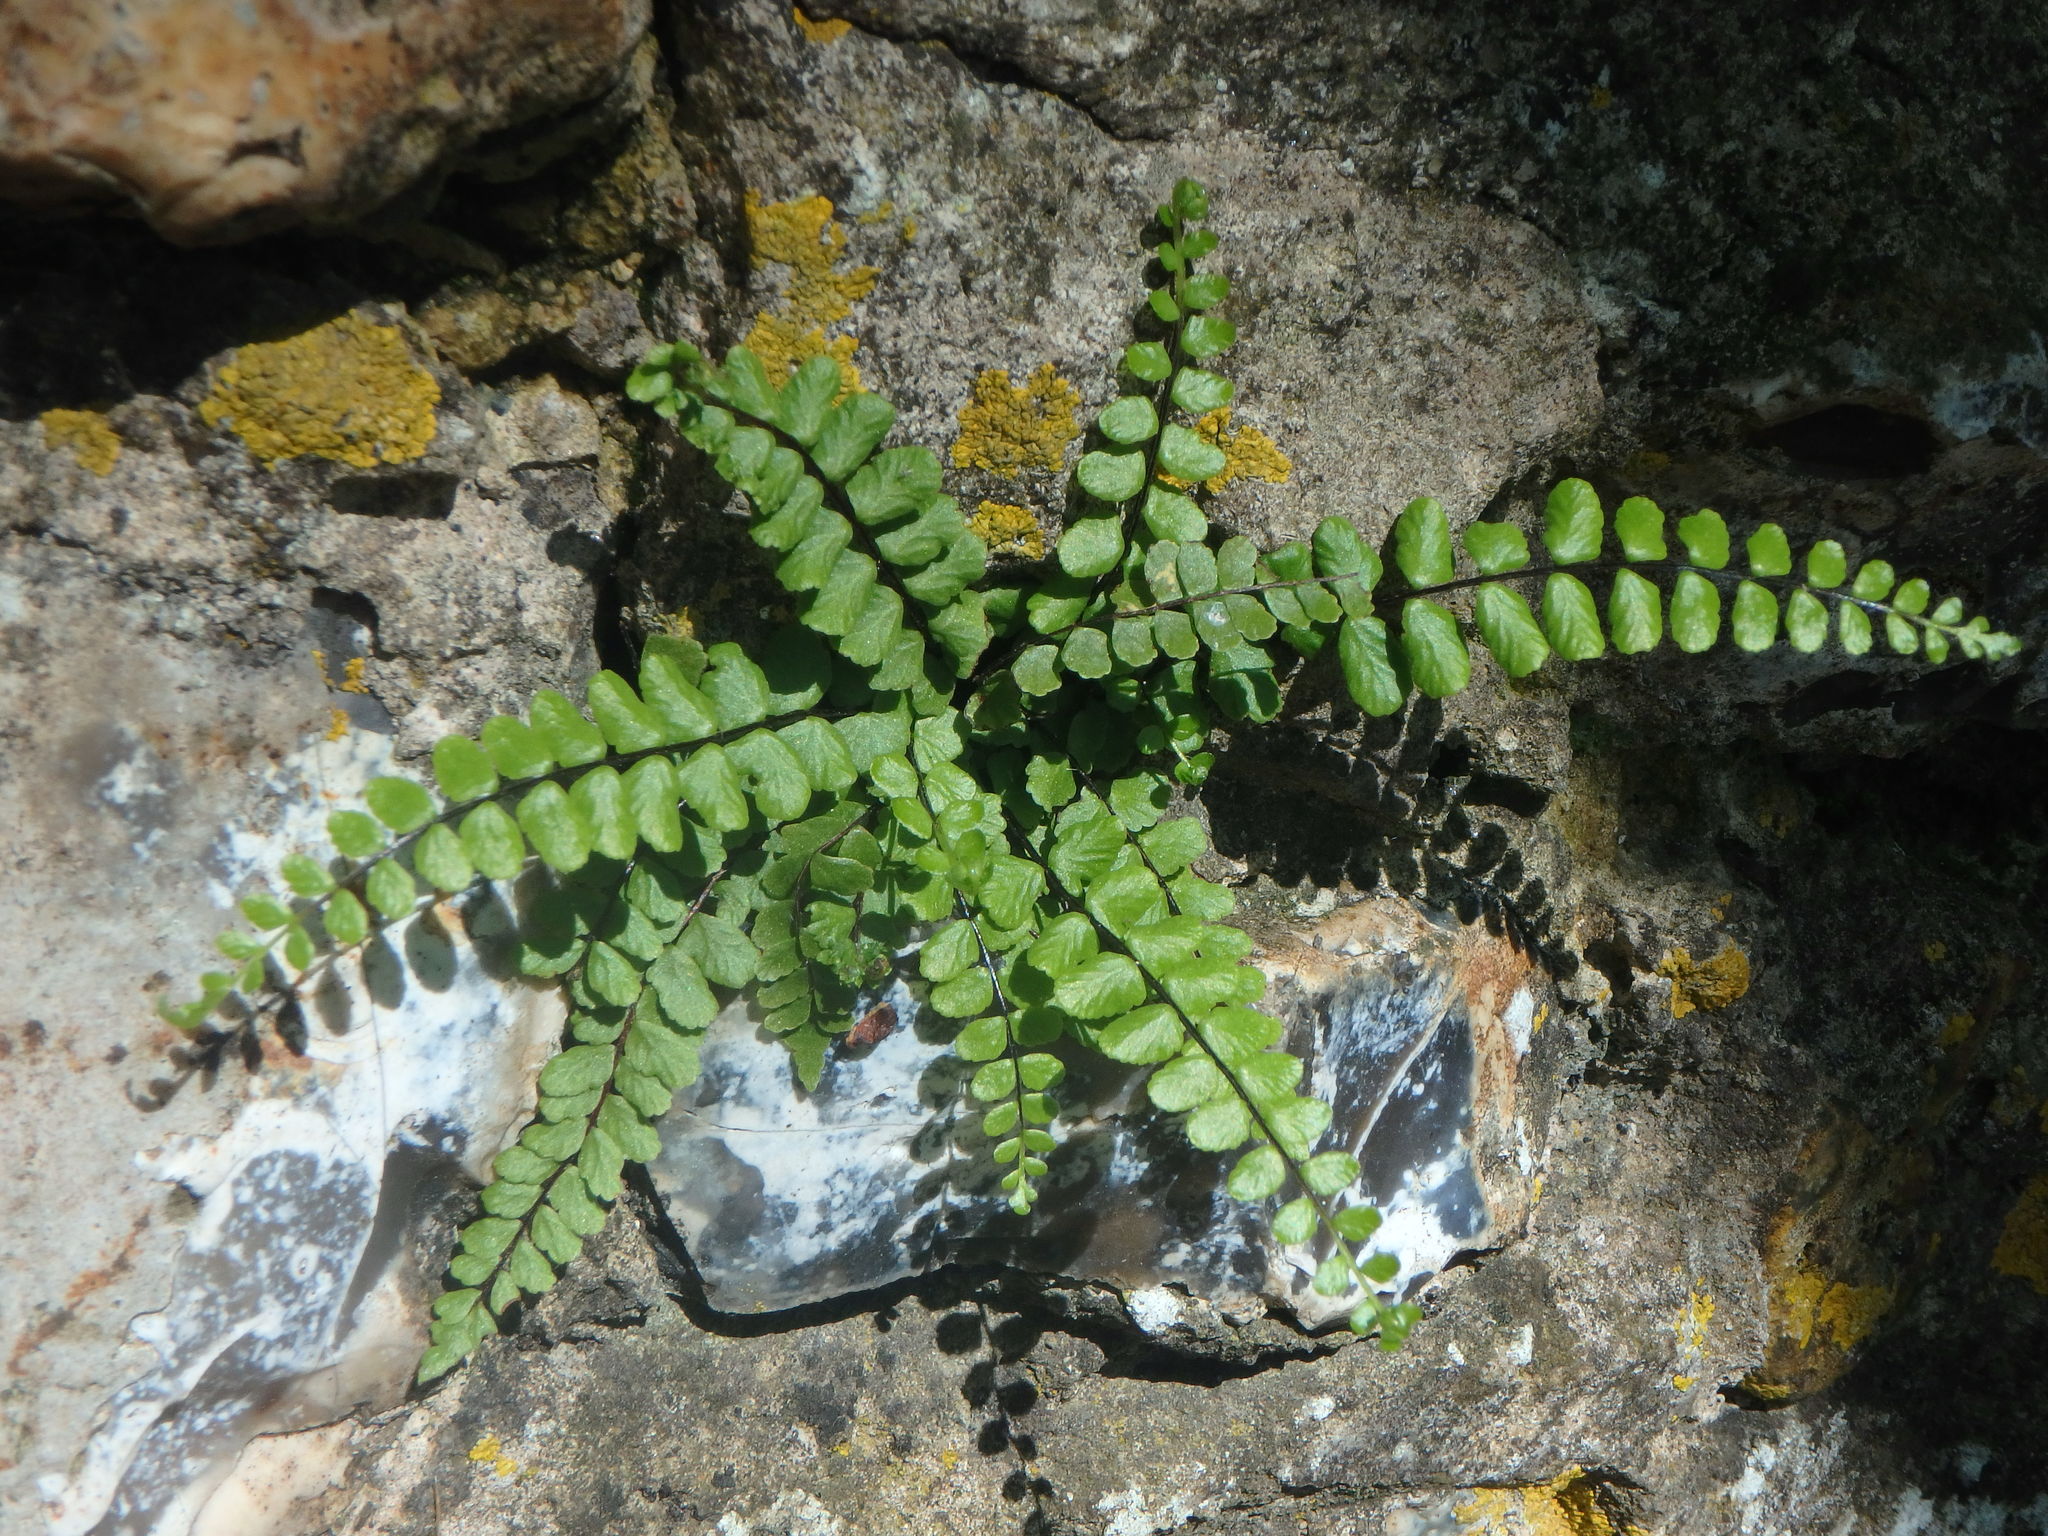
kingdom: Plantae
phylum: Tracheophyta
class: Polypodiopsida
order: Polypodiales
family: Aspleniaceae
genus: Asplenium
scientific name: Asplenium trichomanes
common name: Maidenhair spleenwort
